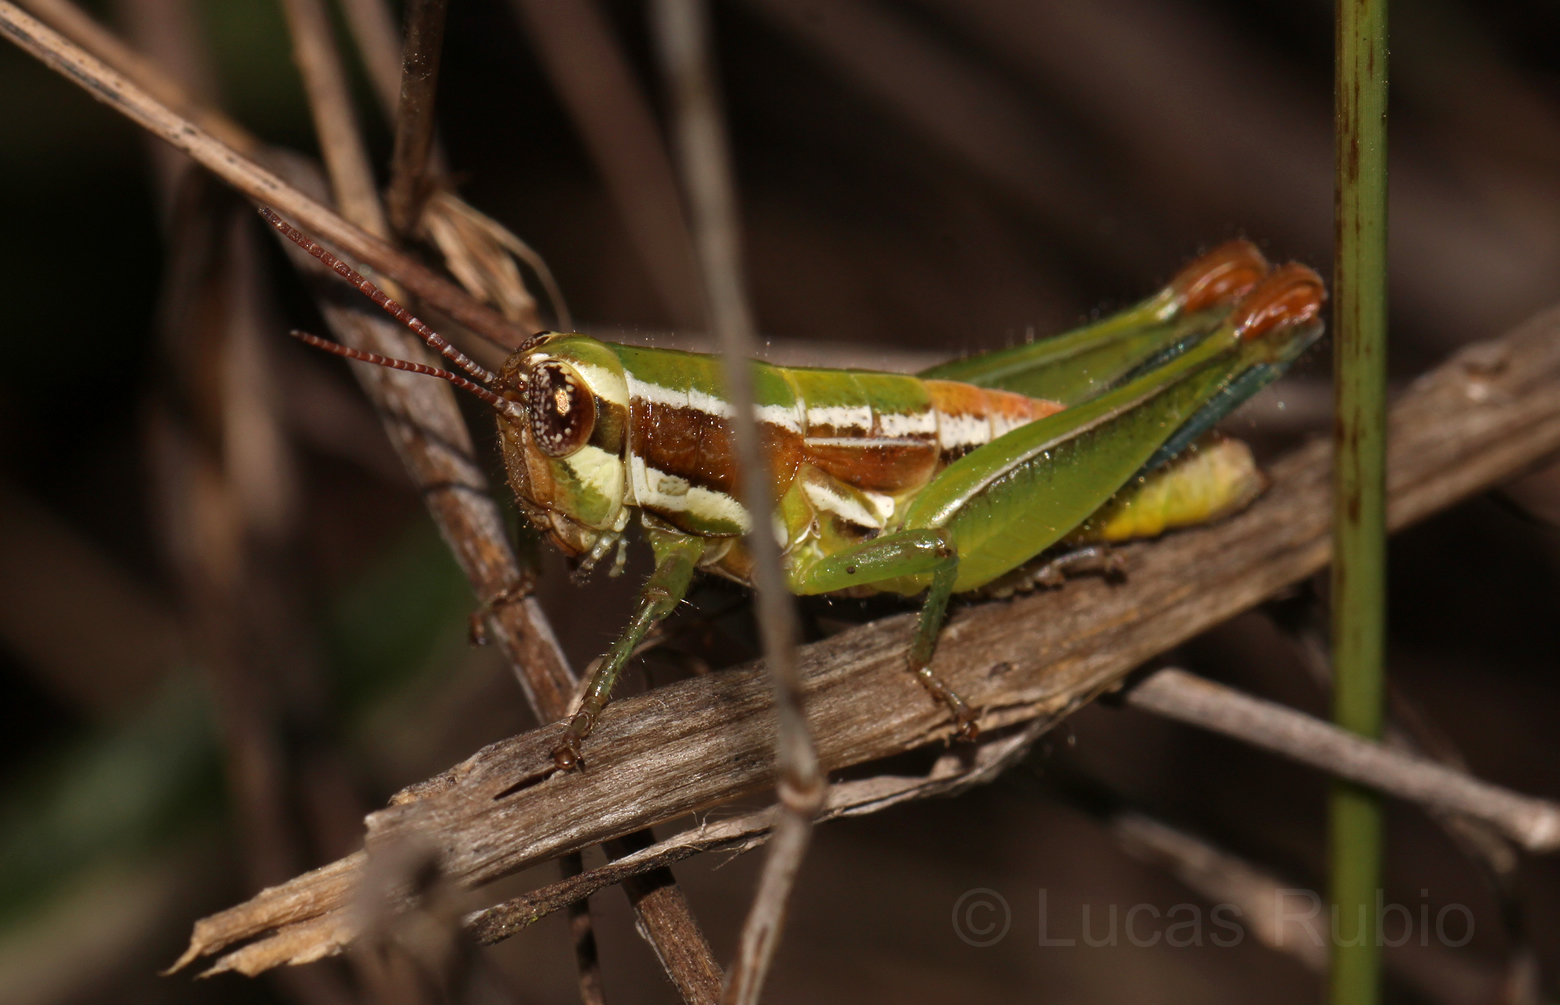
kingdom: Animalia
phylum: Arthropoda
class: Insecta
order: Orthoptera
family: Acrididae
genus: Neopedies
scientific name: Neopedies brunneri
